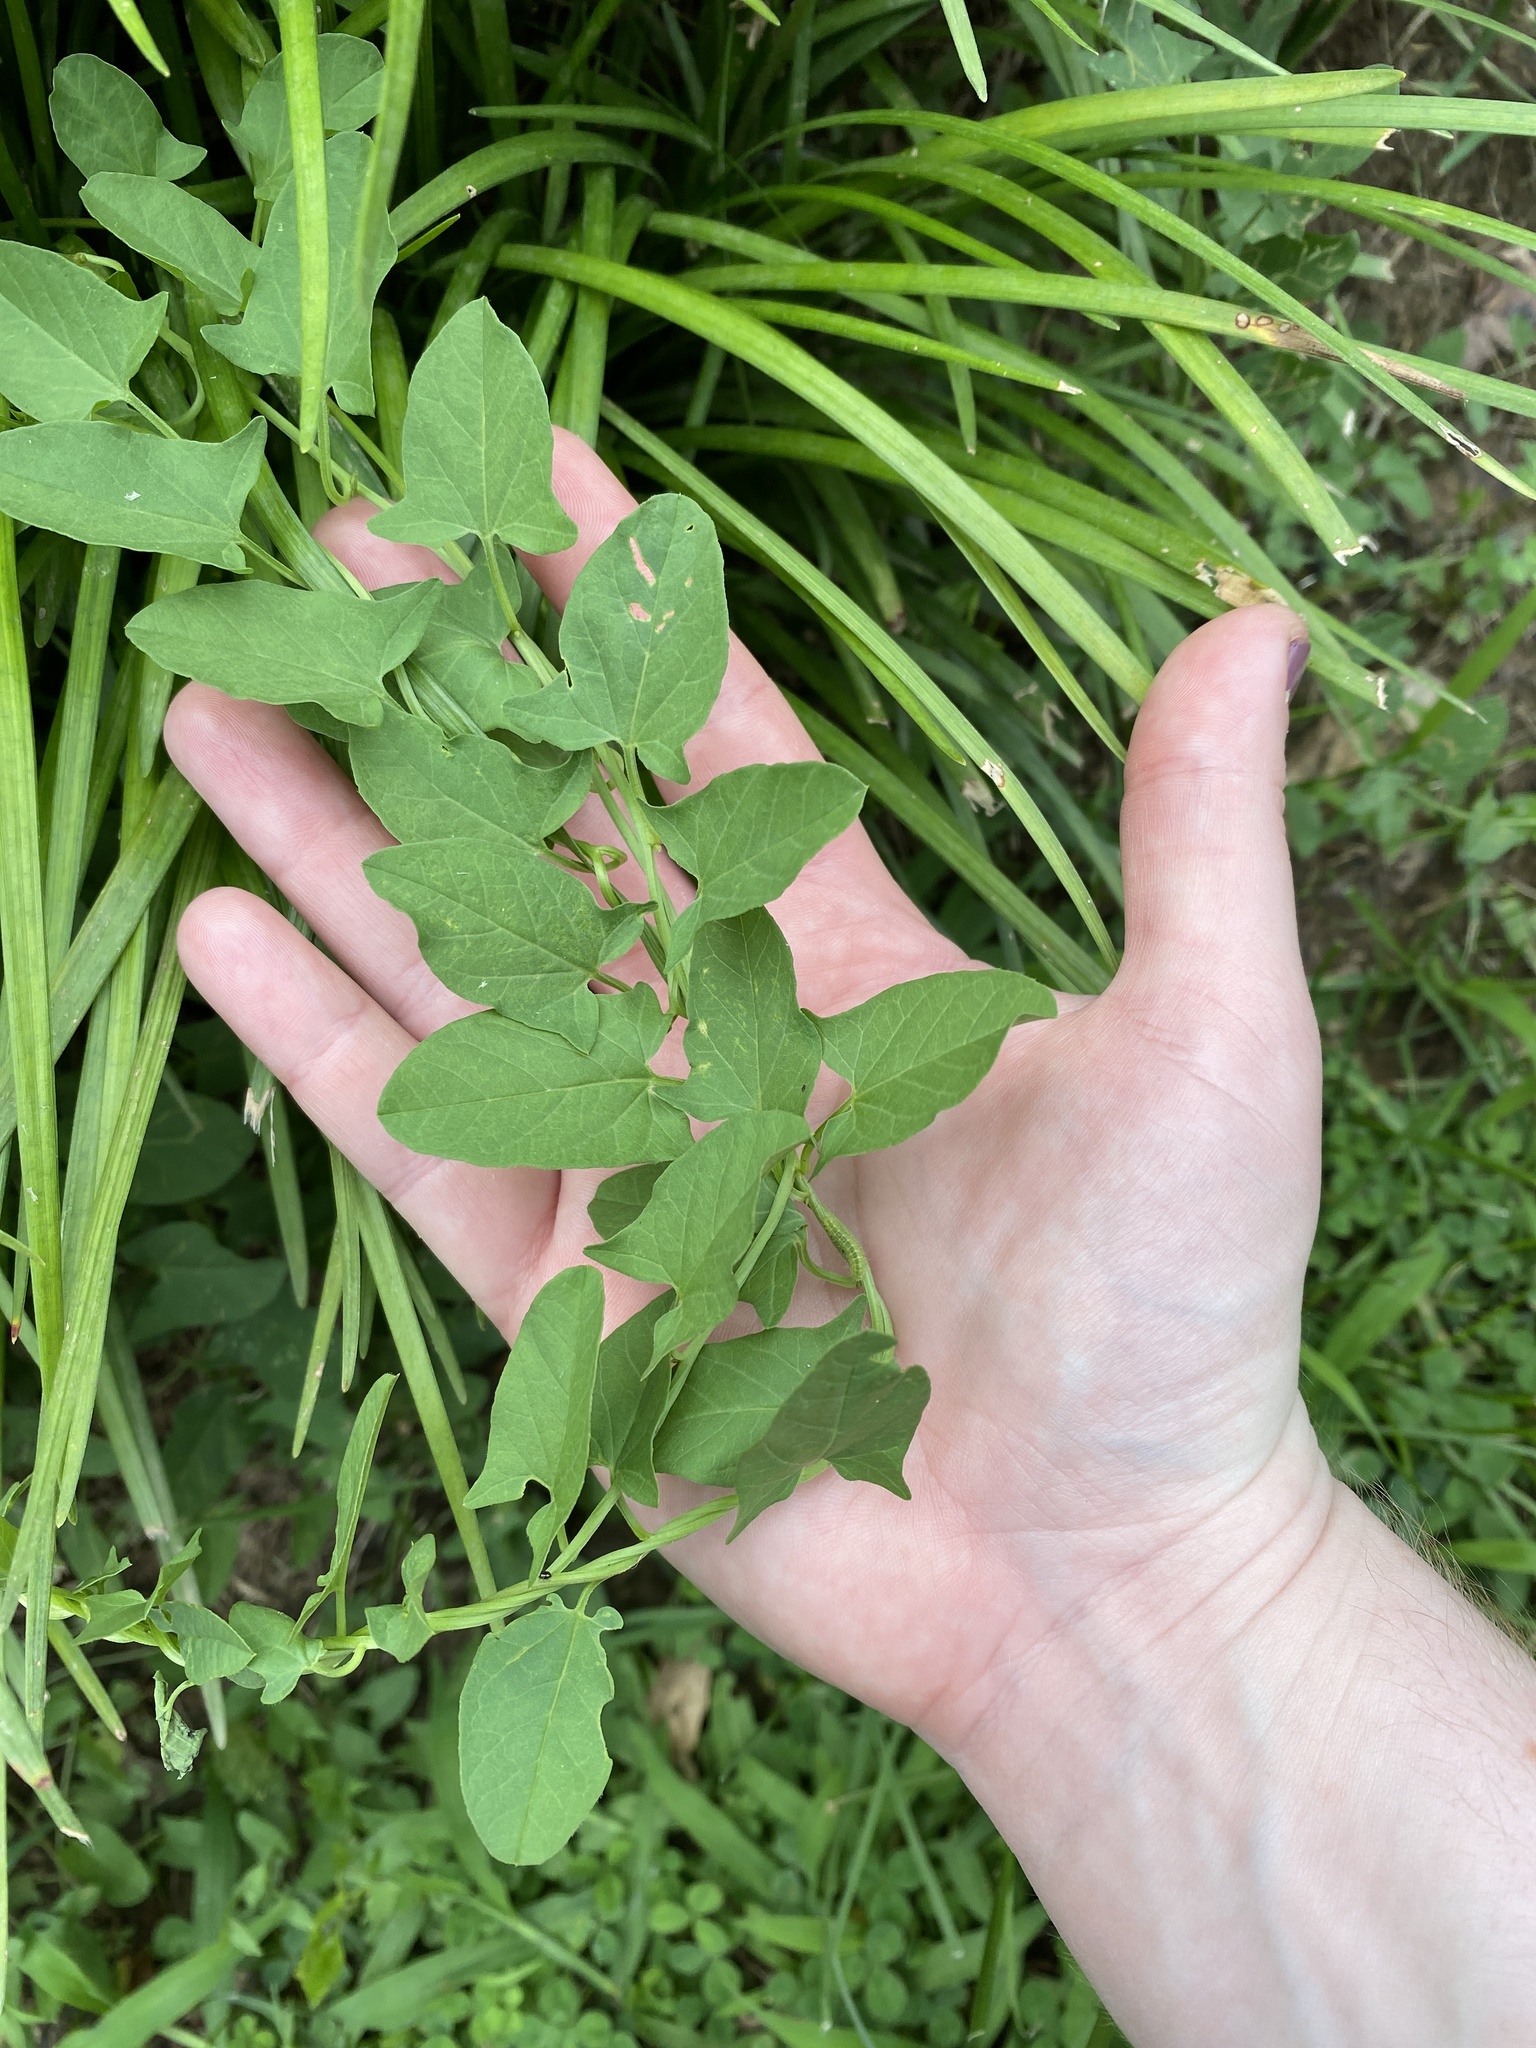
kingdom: Plantae
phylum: Tracheophyta
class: Magnoliopsida
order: Solanales
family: Convolvulaceae
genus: Convolvulus
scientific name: Convolvulus arvensis
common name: Field bindweed
